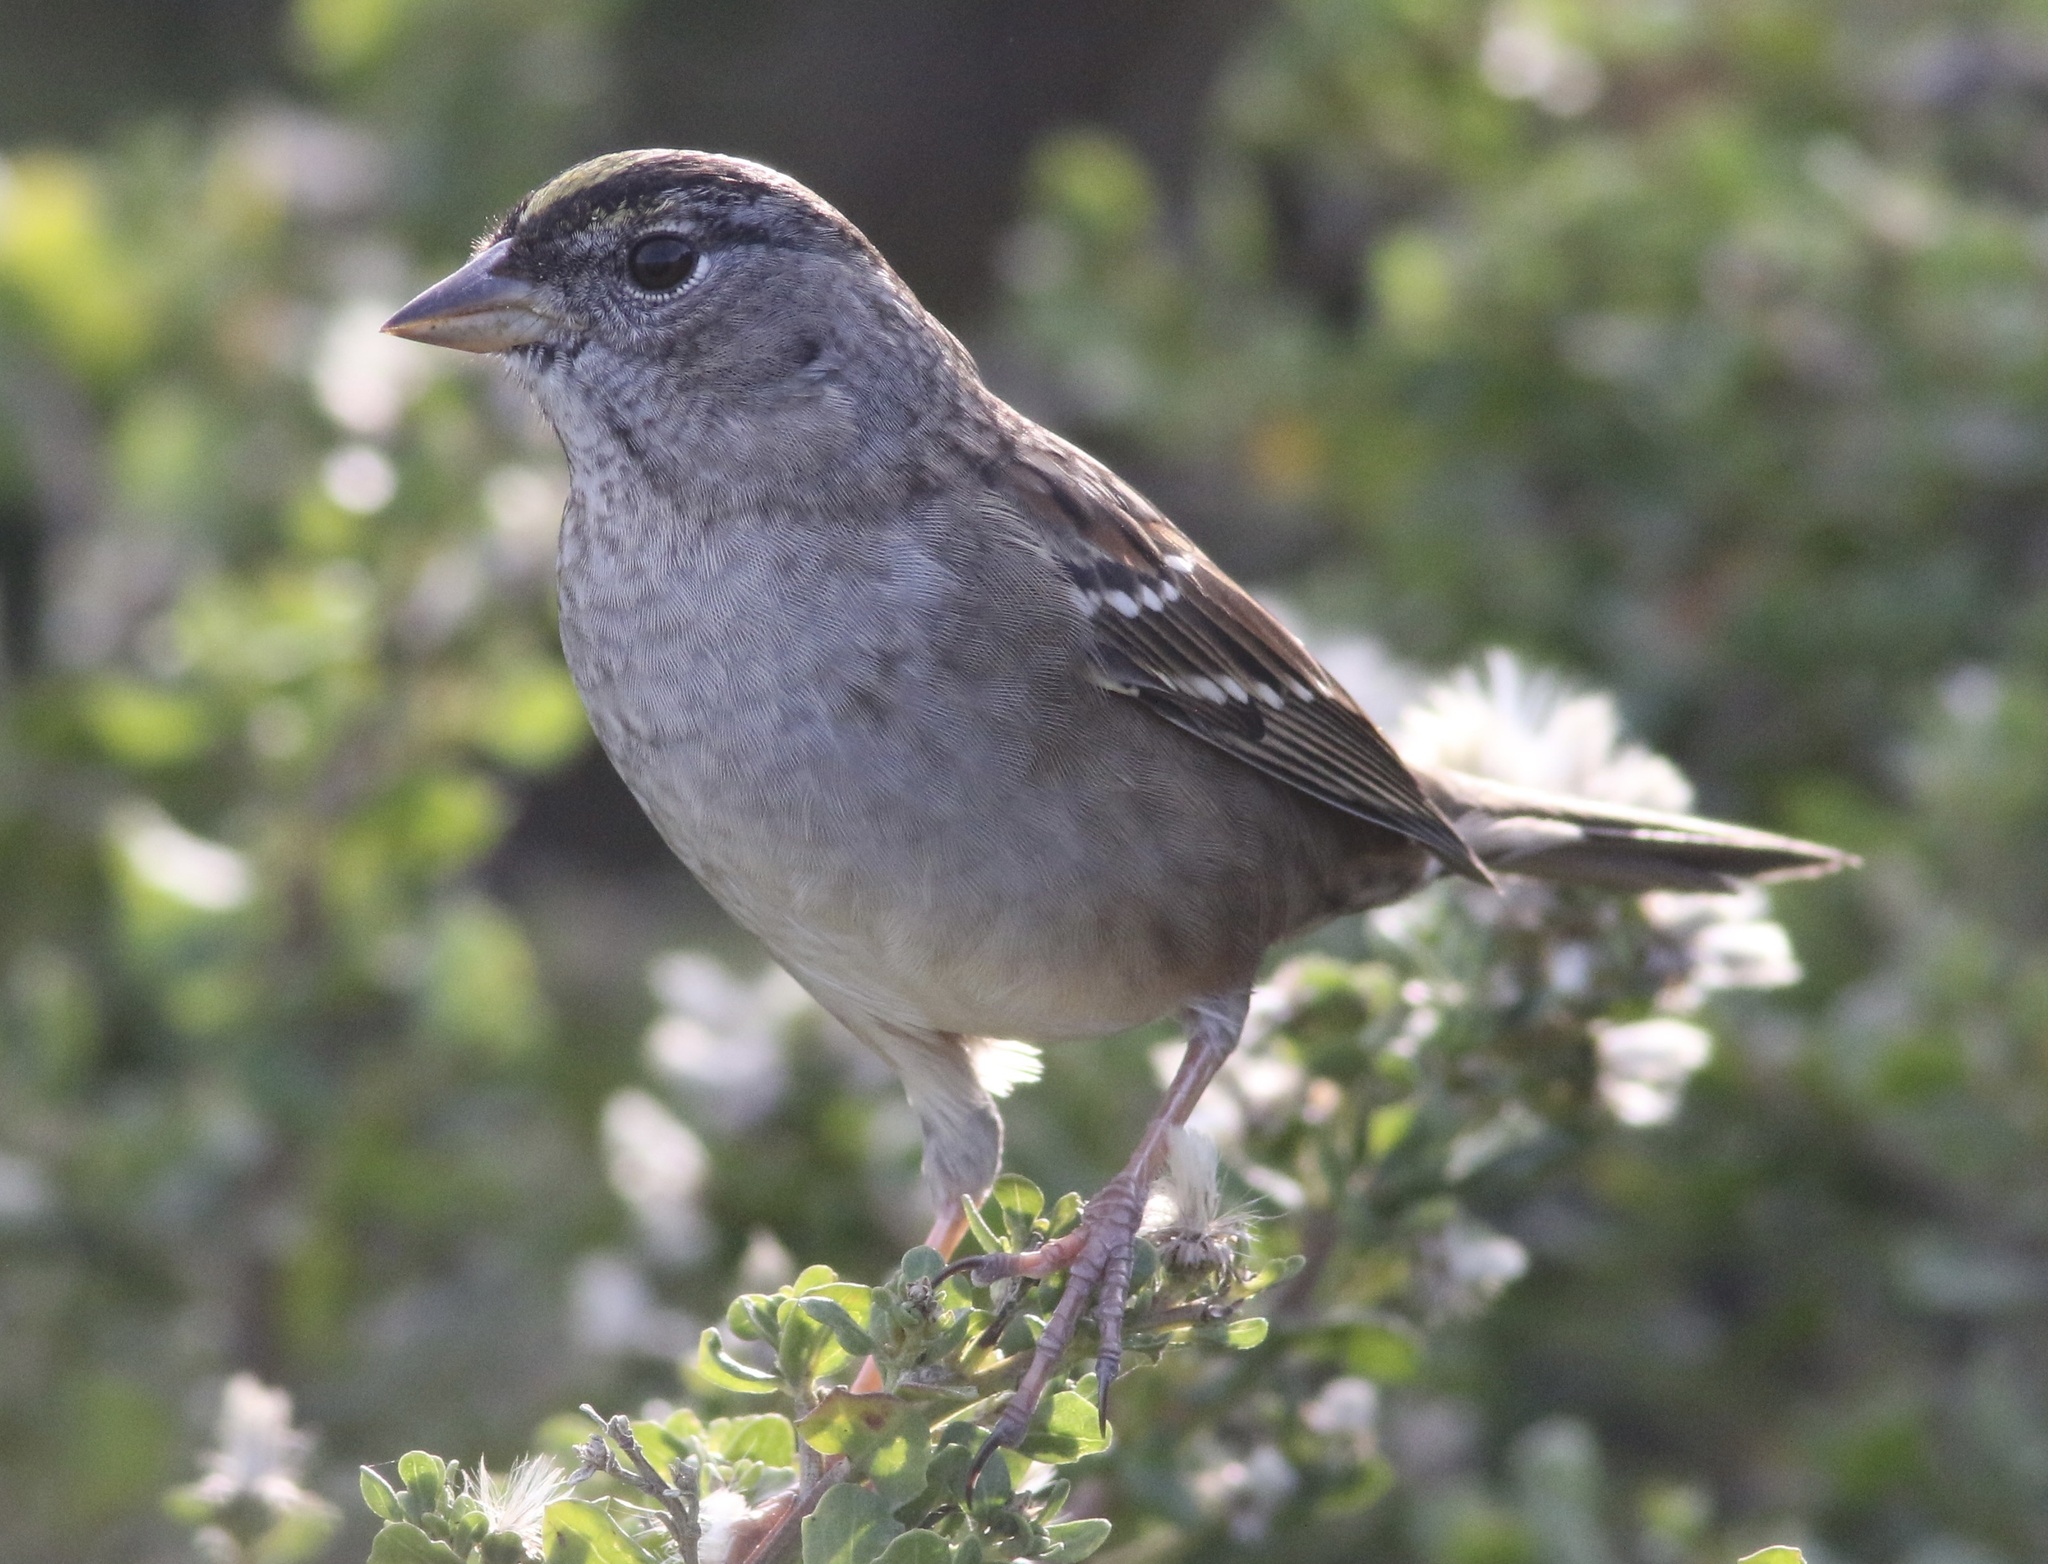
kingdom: Animalia
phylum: Chordata
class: Aves
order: Passeriformes
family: Passerellidae
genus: Zonotrichia
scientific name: Zonotrichia atricapilla
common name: Golden-crowned sparrow
